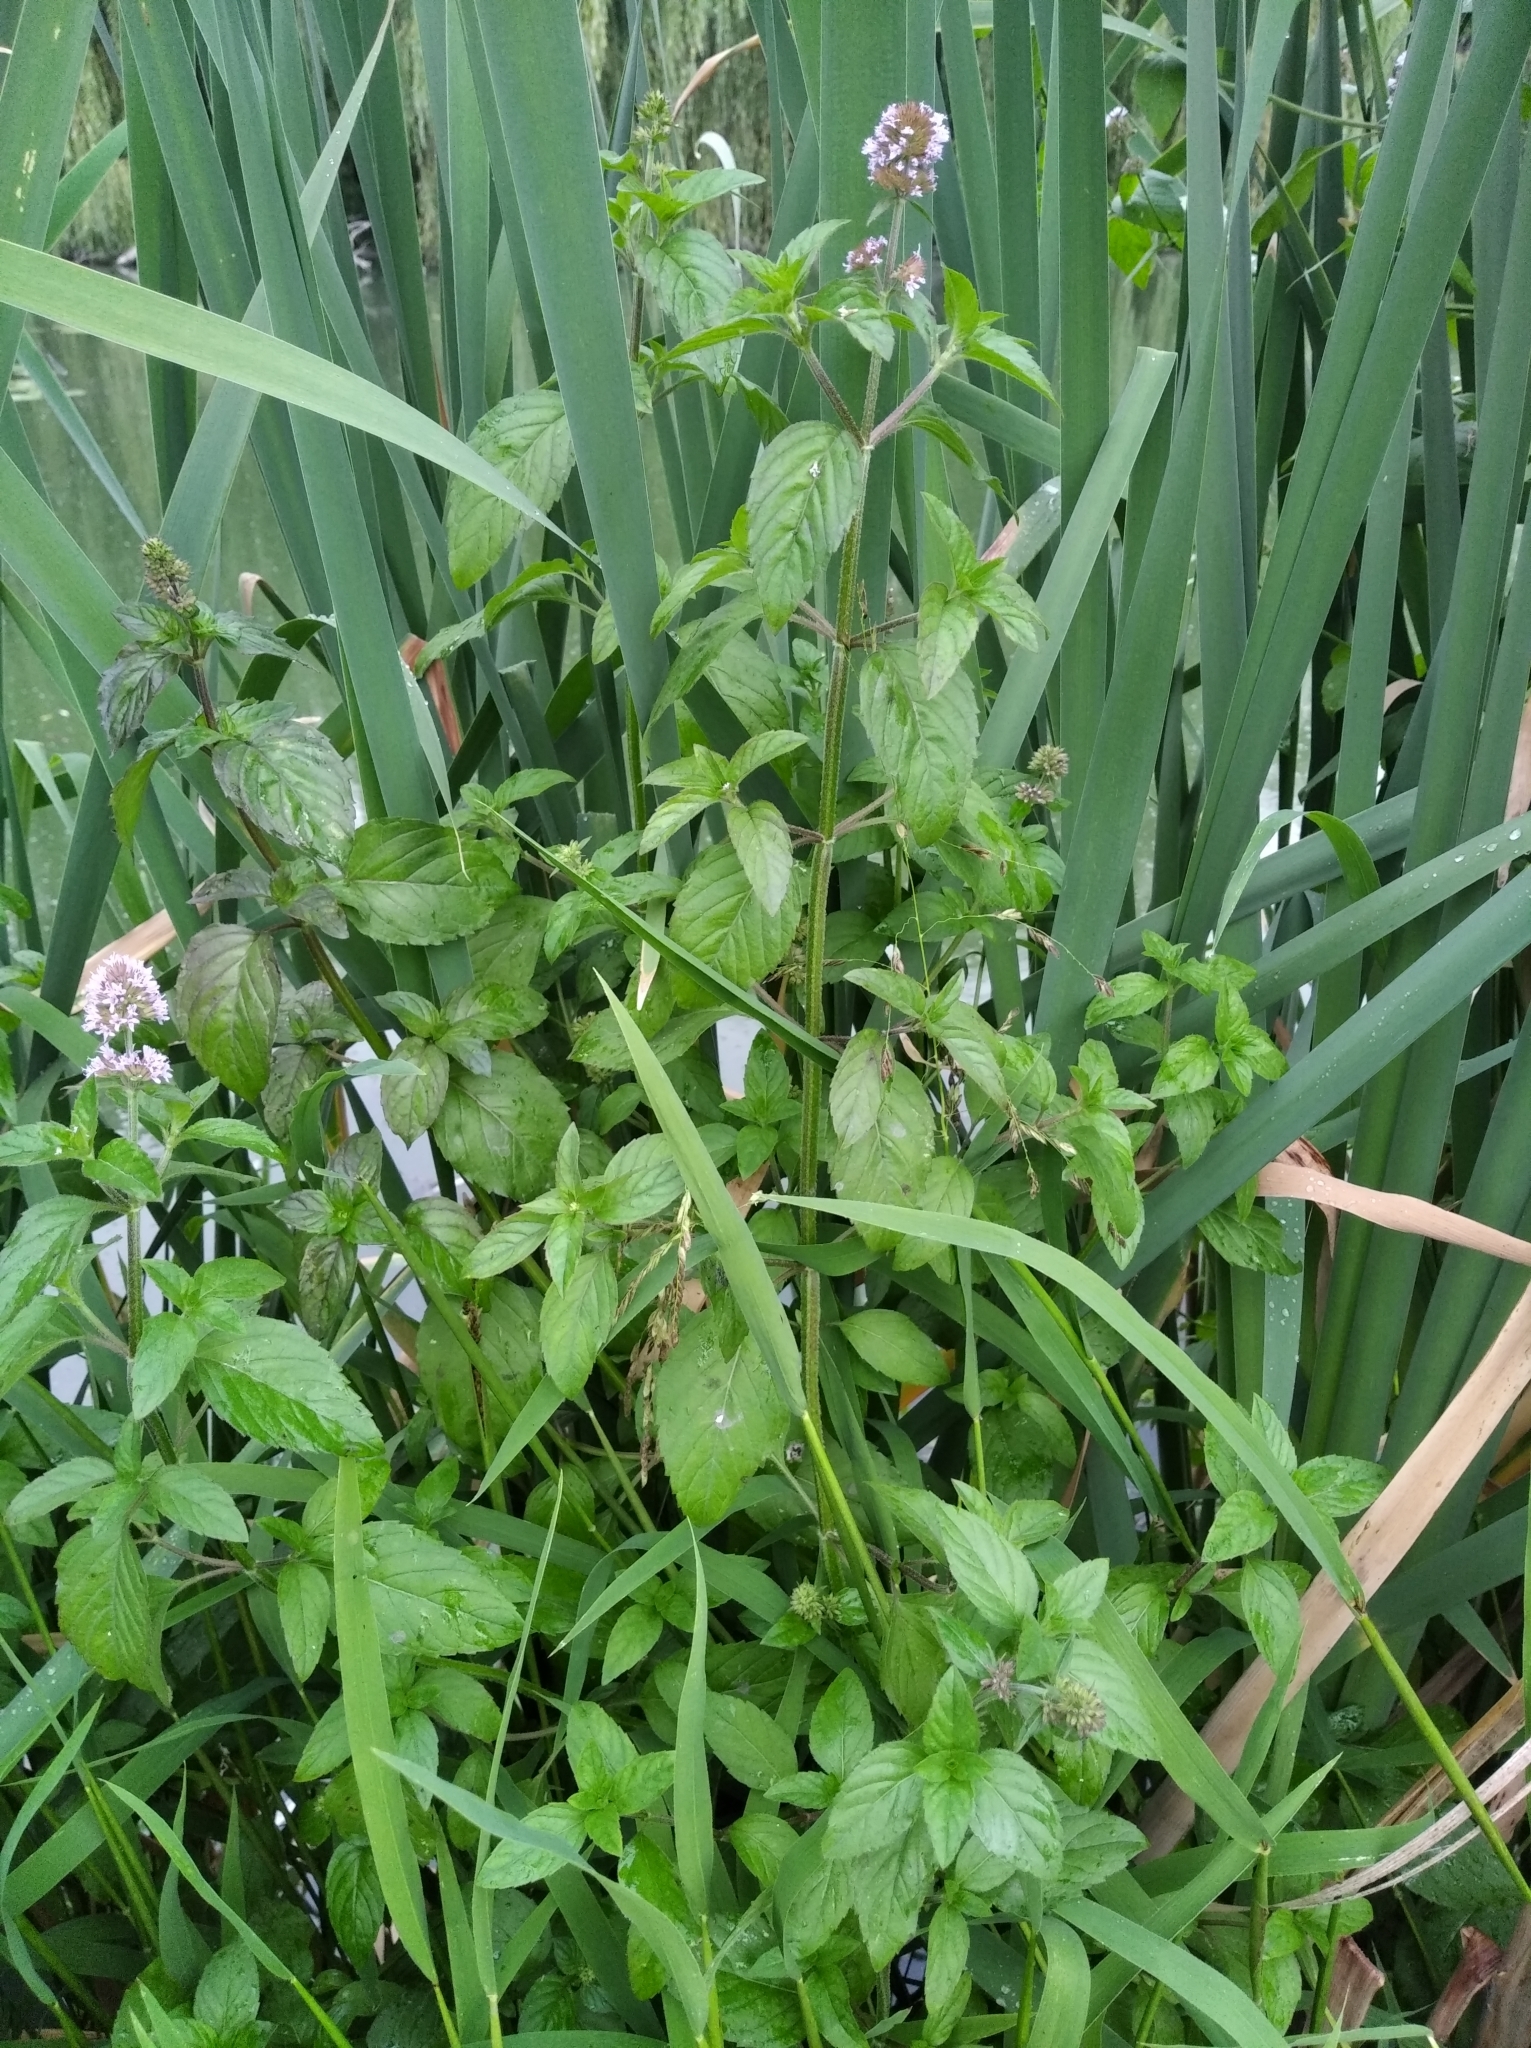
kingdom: Plantae
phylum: Tracheophyta
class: Magnoliopsida
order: Lamiales
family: Lamiaceae
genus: Mentha
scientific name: Mentha aquatica
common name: Water mint
